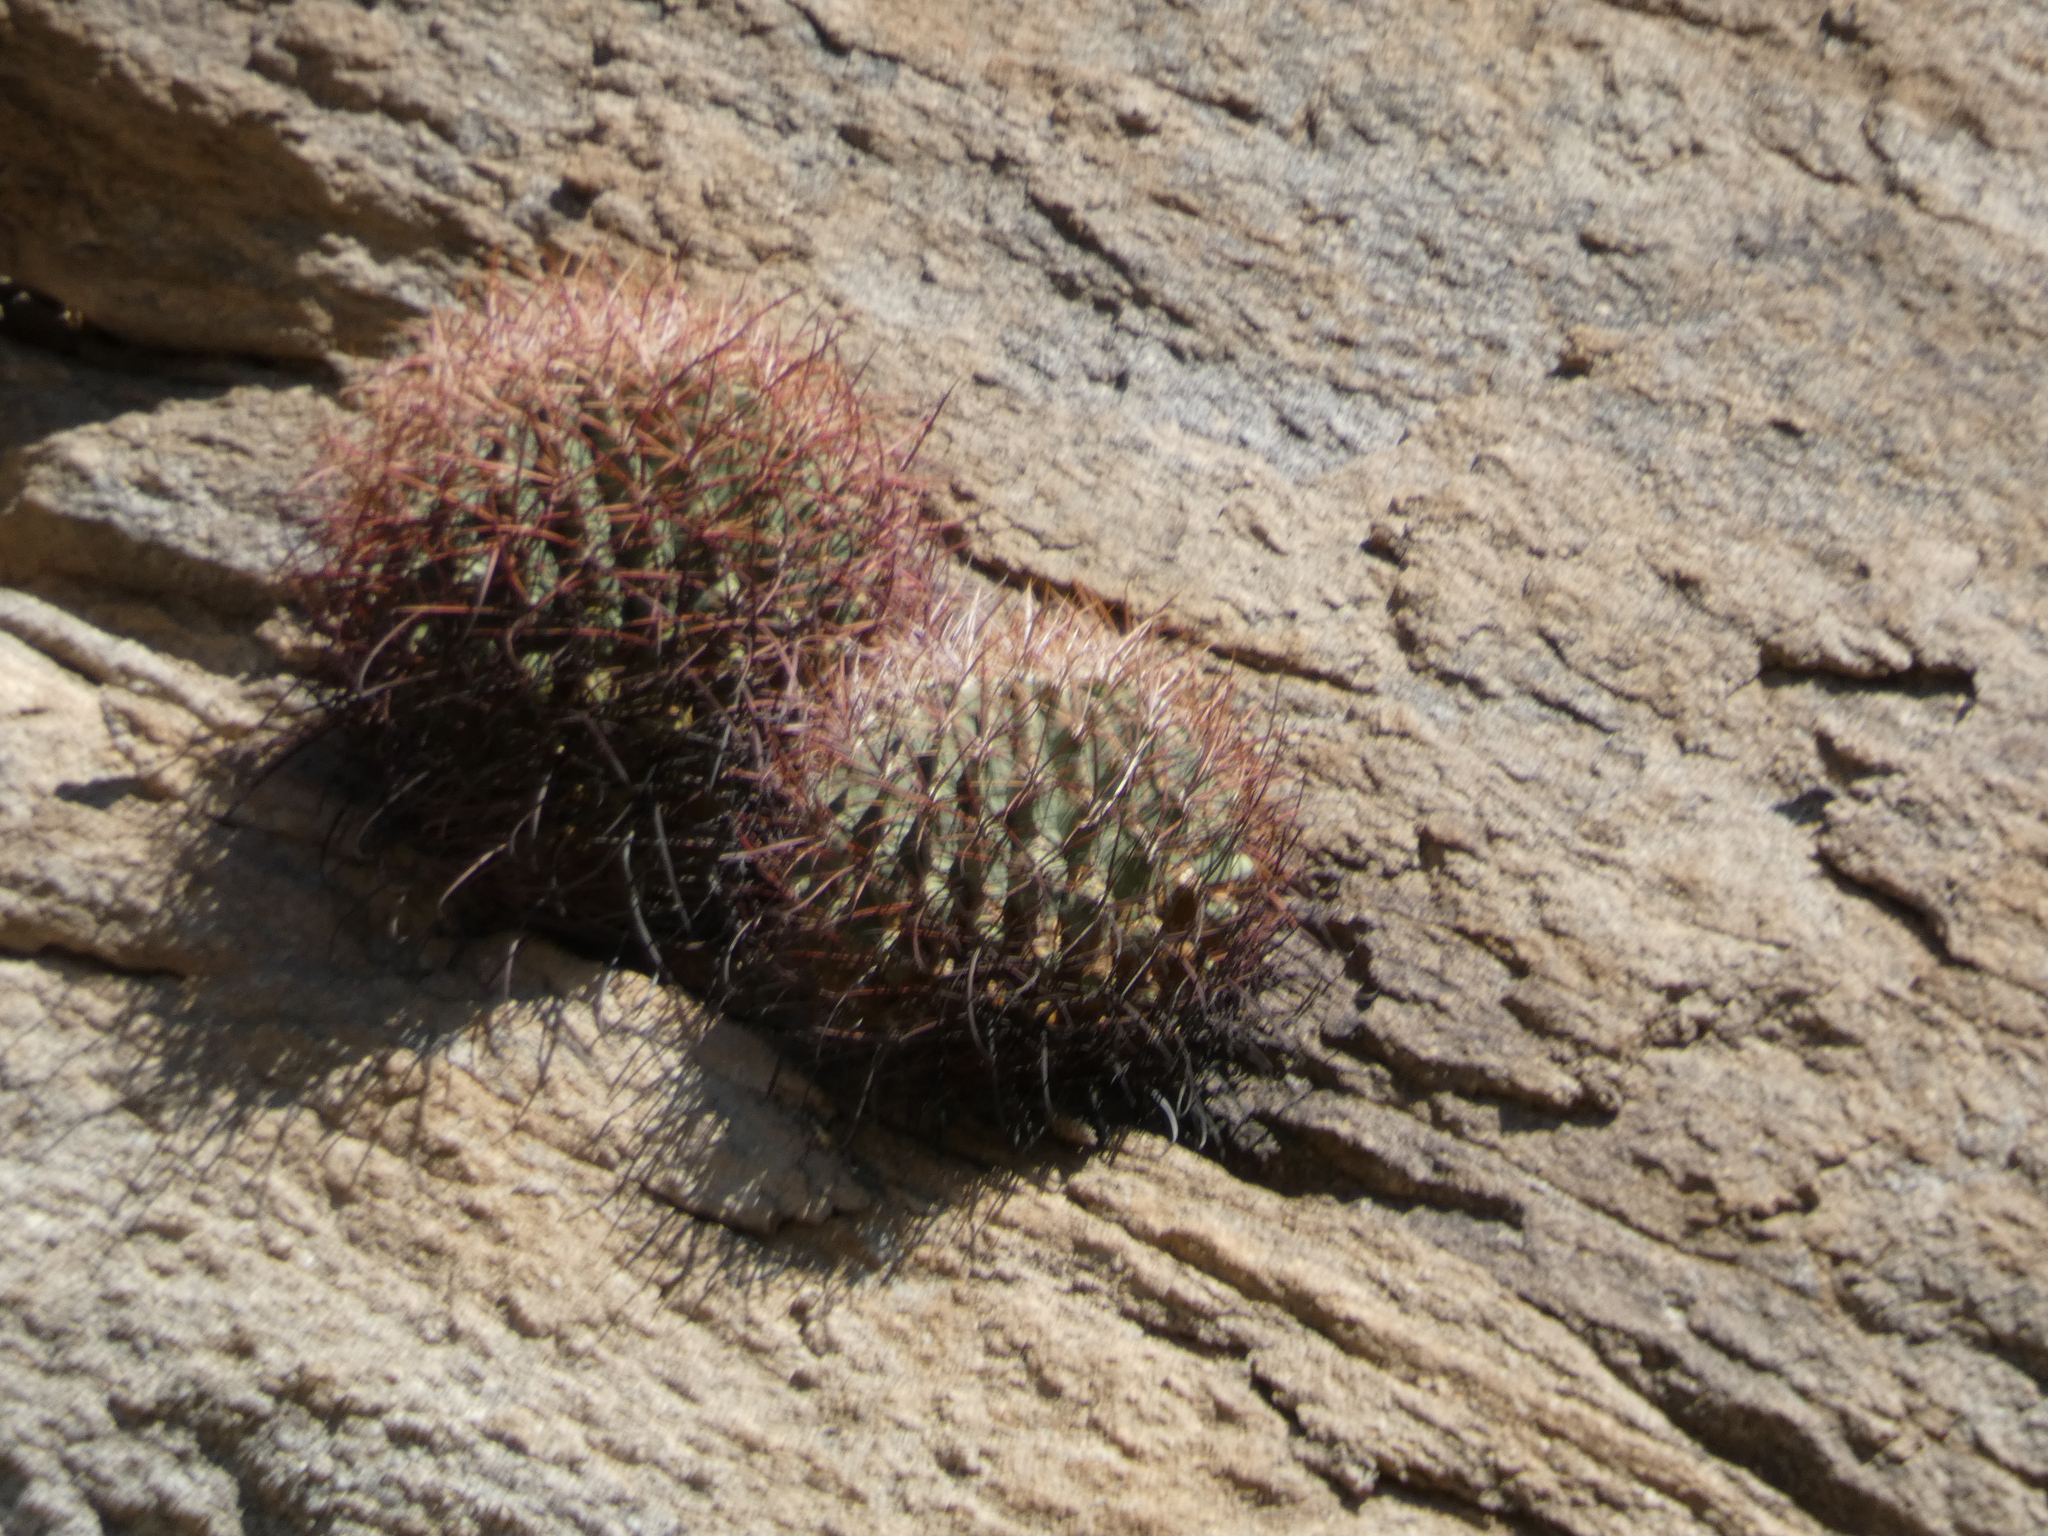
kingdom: Plantae
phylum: Tracheophyta
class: Magnoliopsida
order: Caryophyllales
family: Cactaceae
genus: Ferocactus
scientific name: Ferocactus cylindraceus
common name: California barrel cactus
